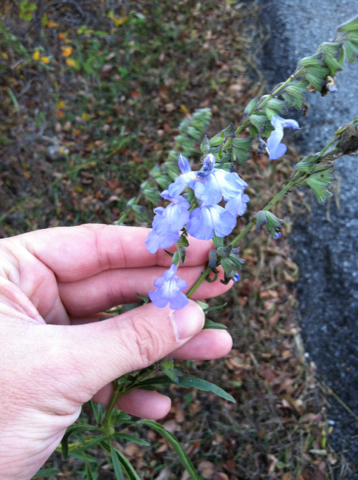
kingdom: Plantae
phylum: Tracheophyta
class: Magnoliopsida
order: Lamiales
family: Lamiaceae
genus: Salvia
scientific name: Salvia azurea
